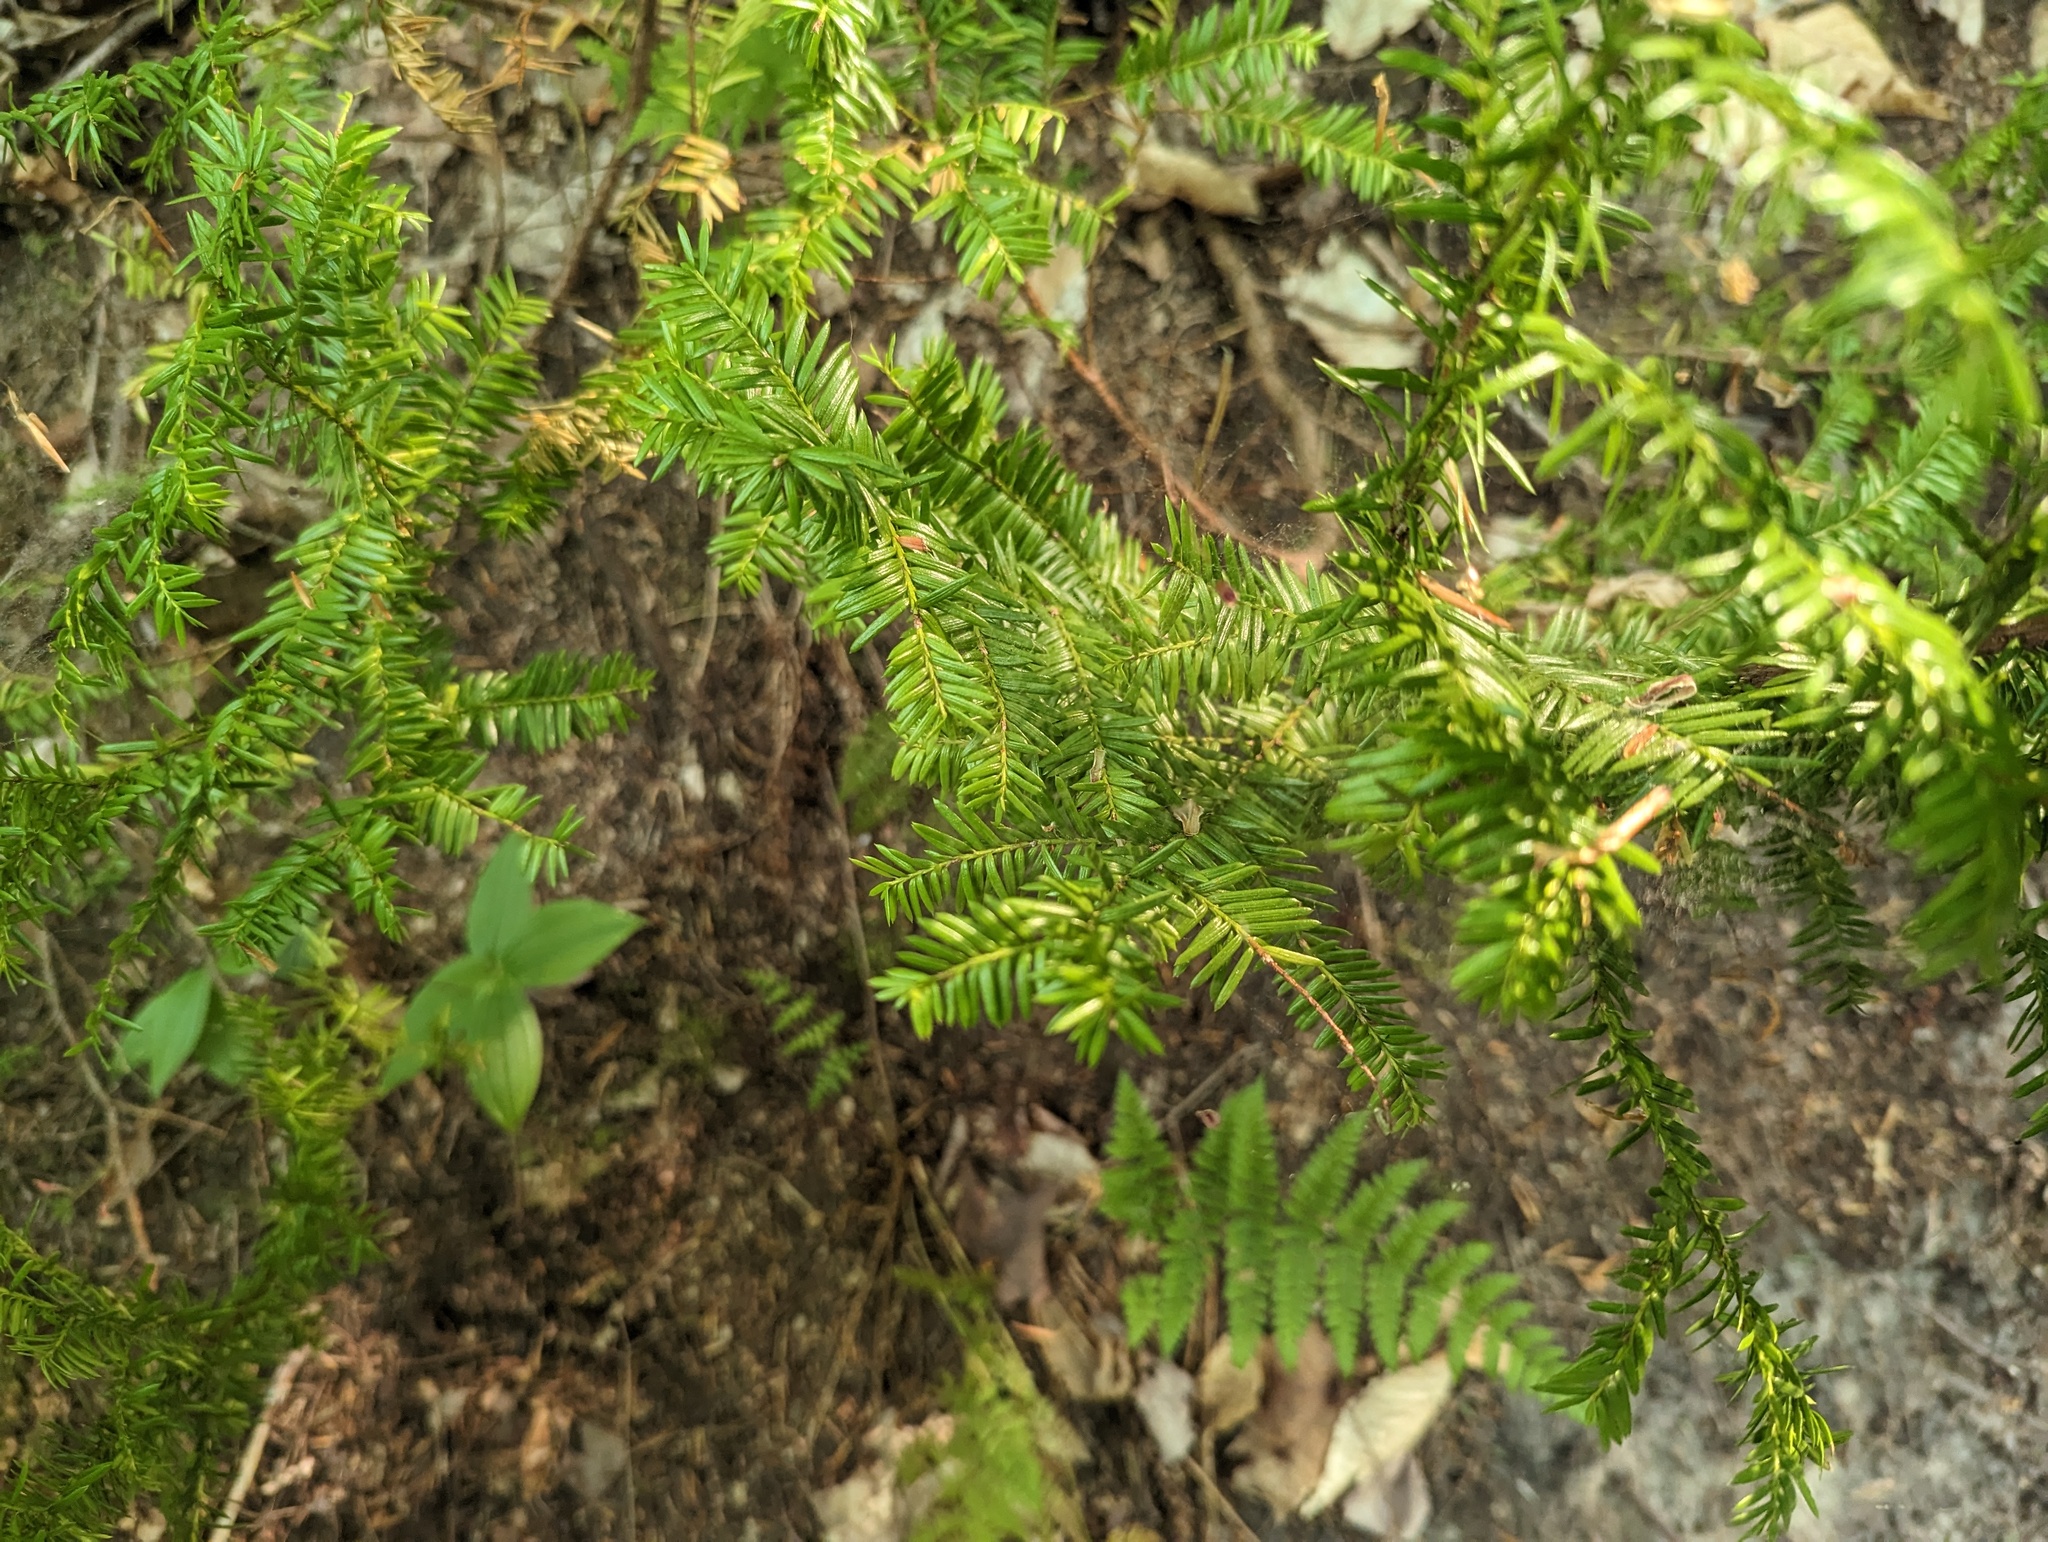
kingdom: Plantae
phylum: Tracheophyta
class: Pinopsida
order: Pinales
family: Taxaceae
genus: Taxus
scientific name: Taxus canadensis
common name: American yew
